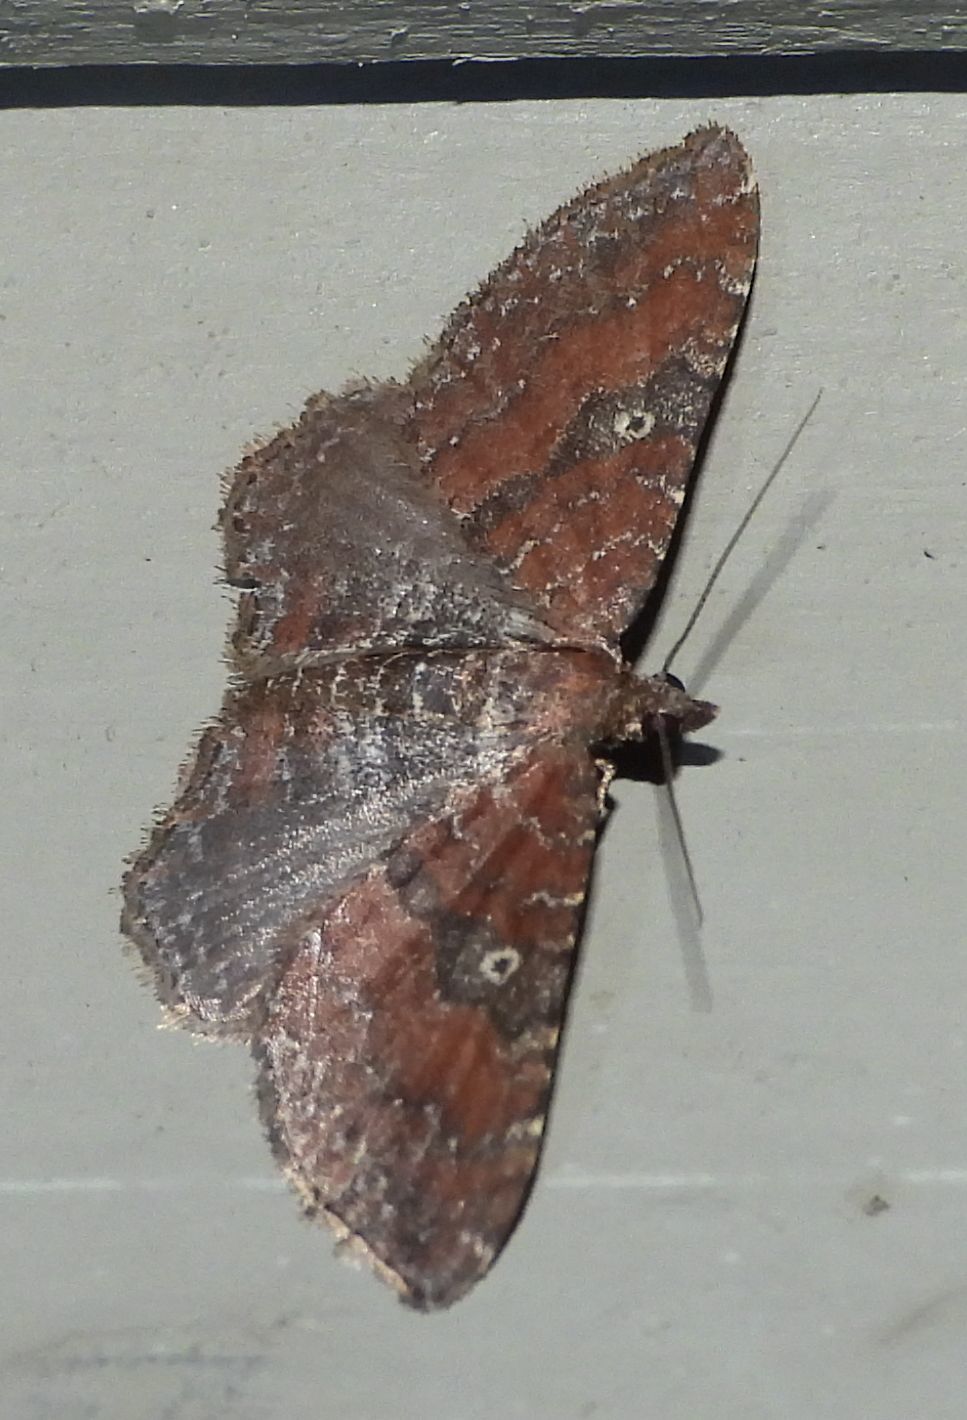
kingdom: Animalia
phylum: Arthropoda
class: Insecta
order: Lepidoptera
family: Geometridae
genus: Orthonama
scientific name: Orthonama obstipata
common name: The gem
